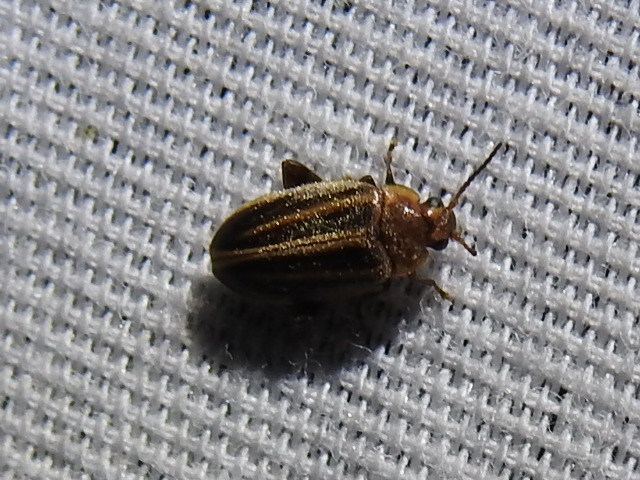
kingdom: Animalia
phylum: Arthropoda
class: Insecta
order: Coleoptera
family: Scirtidae
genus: Scirtes
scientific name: Scirtes oblongus
